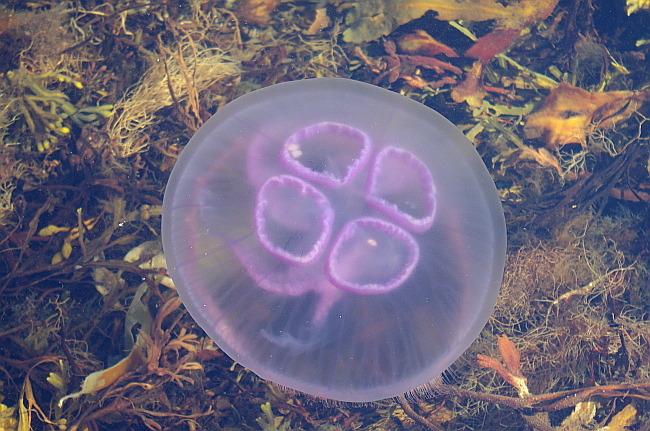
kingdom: Animalia
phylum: Cnidaria
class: Scyphozoa
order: Semaeostomeae
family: Ulmaridae
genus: Aurelia
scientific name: Aurelia aurita
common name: Moon jellyfish
